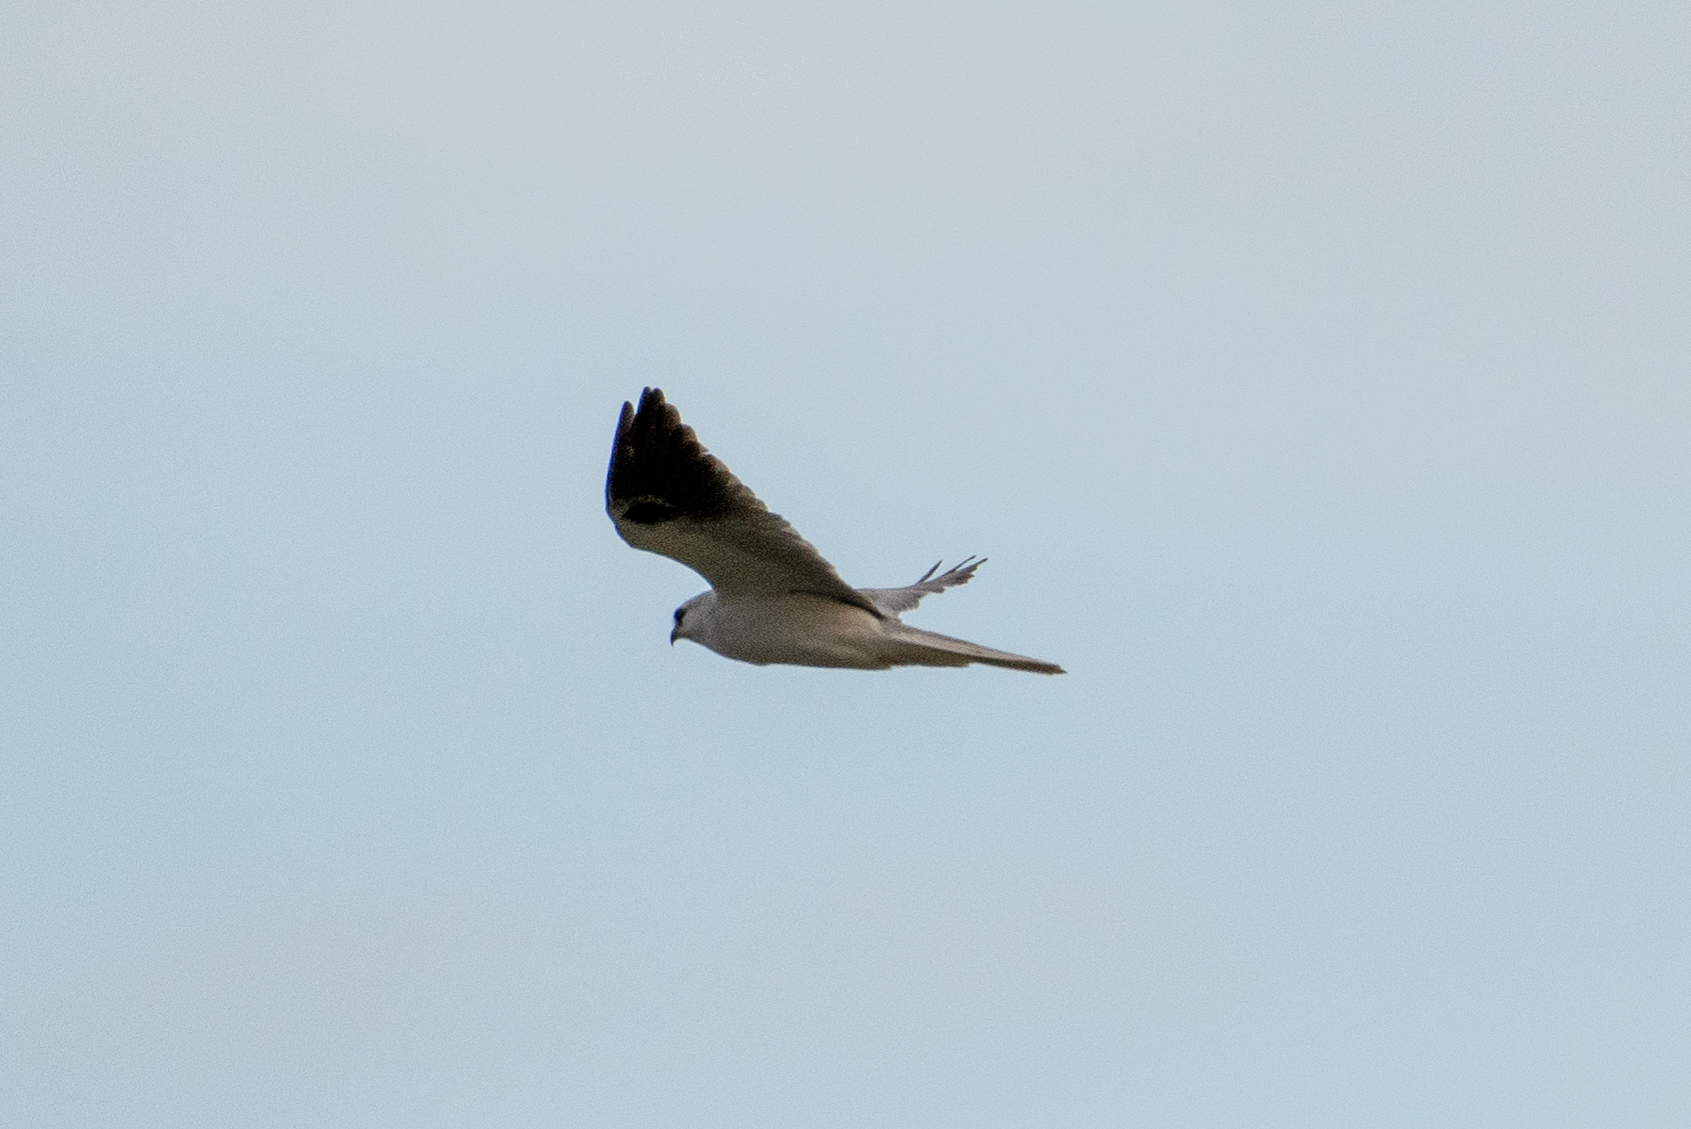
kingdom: Animalia
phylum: Chordata
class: Aves
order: Accipitriformes
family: Accipitridae
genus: Elanus
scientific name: Elanus leucurus
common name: White-tailed kite
